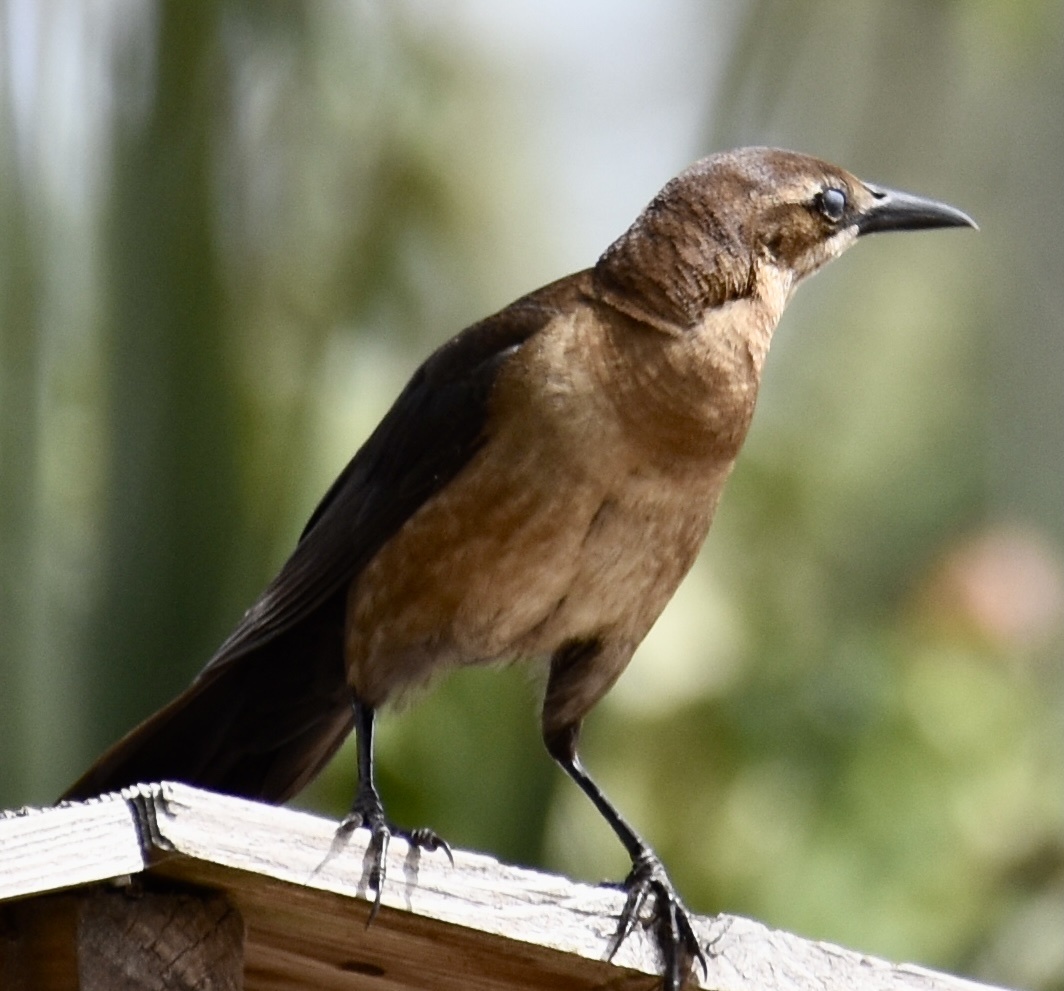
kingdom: Animalia
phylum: Chordata
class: Aves
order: Passeriformes
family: Icteridae
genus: Quiscalus
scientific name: Quiscalus major
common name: Boat-tailed grackle
